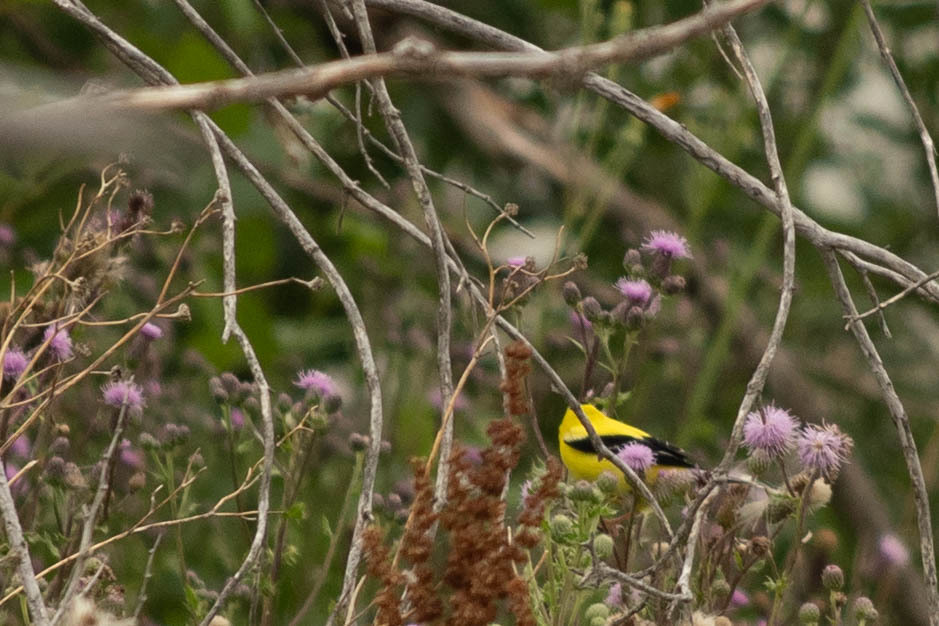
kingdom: Animalia
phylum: Chordata
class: Aves
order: Passeriformes
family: Fringillidae
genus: Spinus
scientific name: Spinus tristis
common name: American goldfinch
